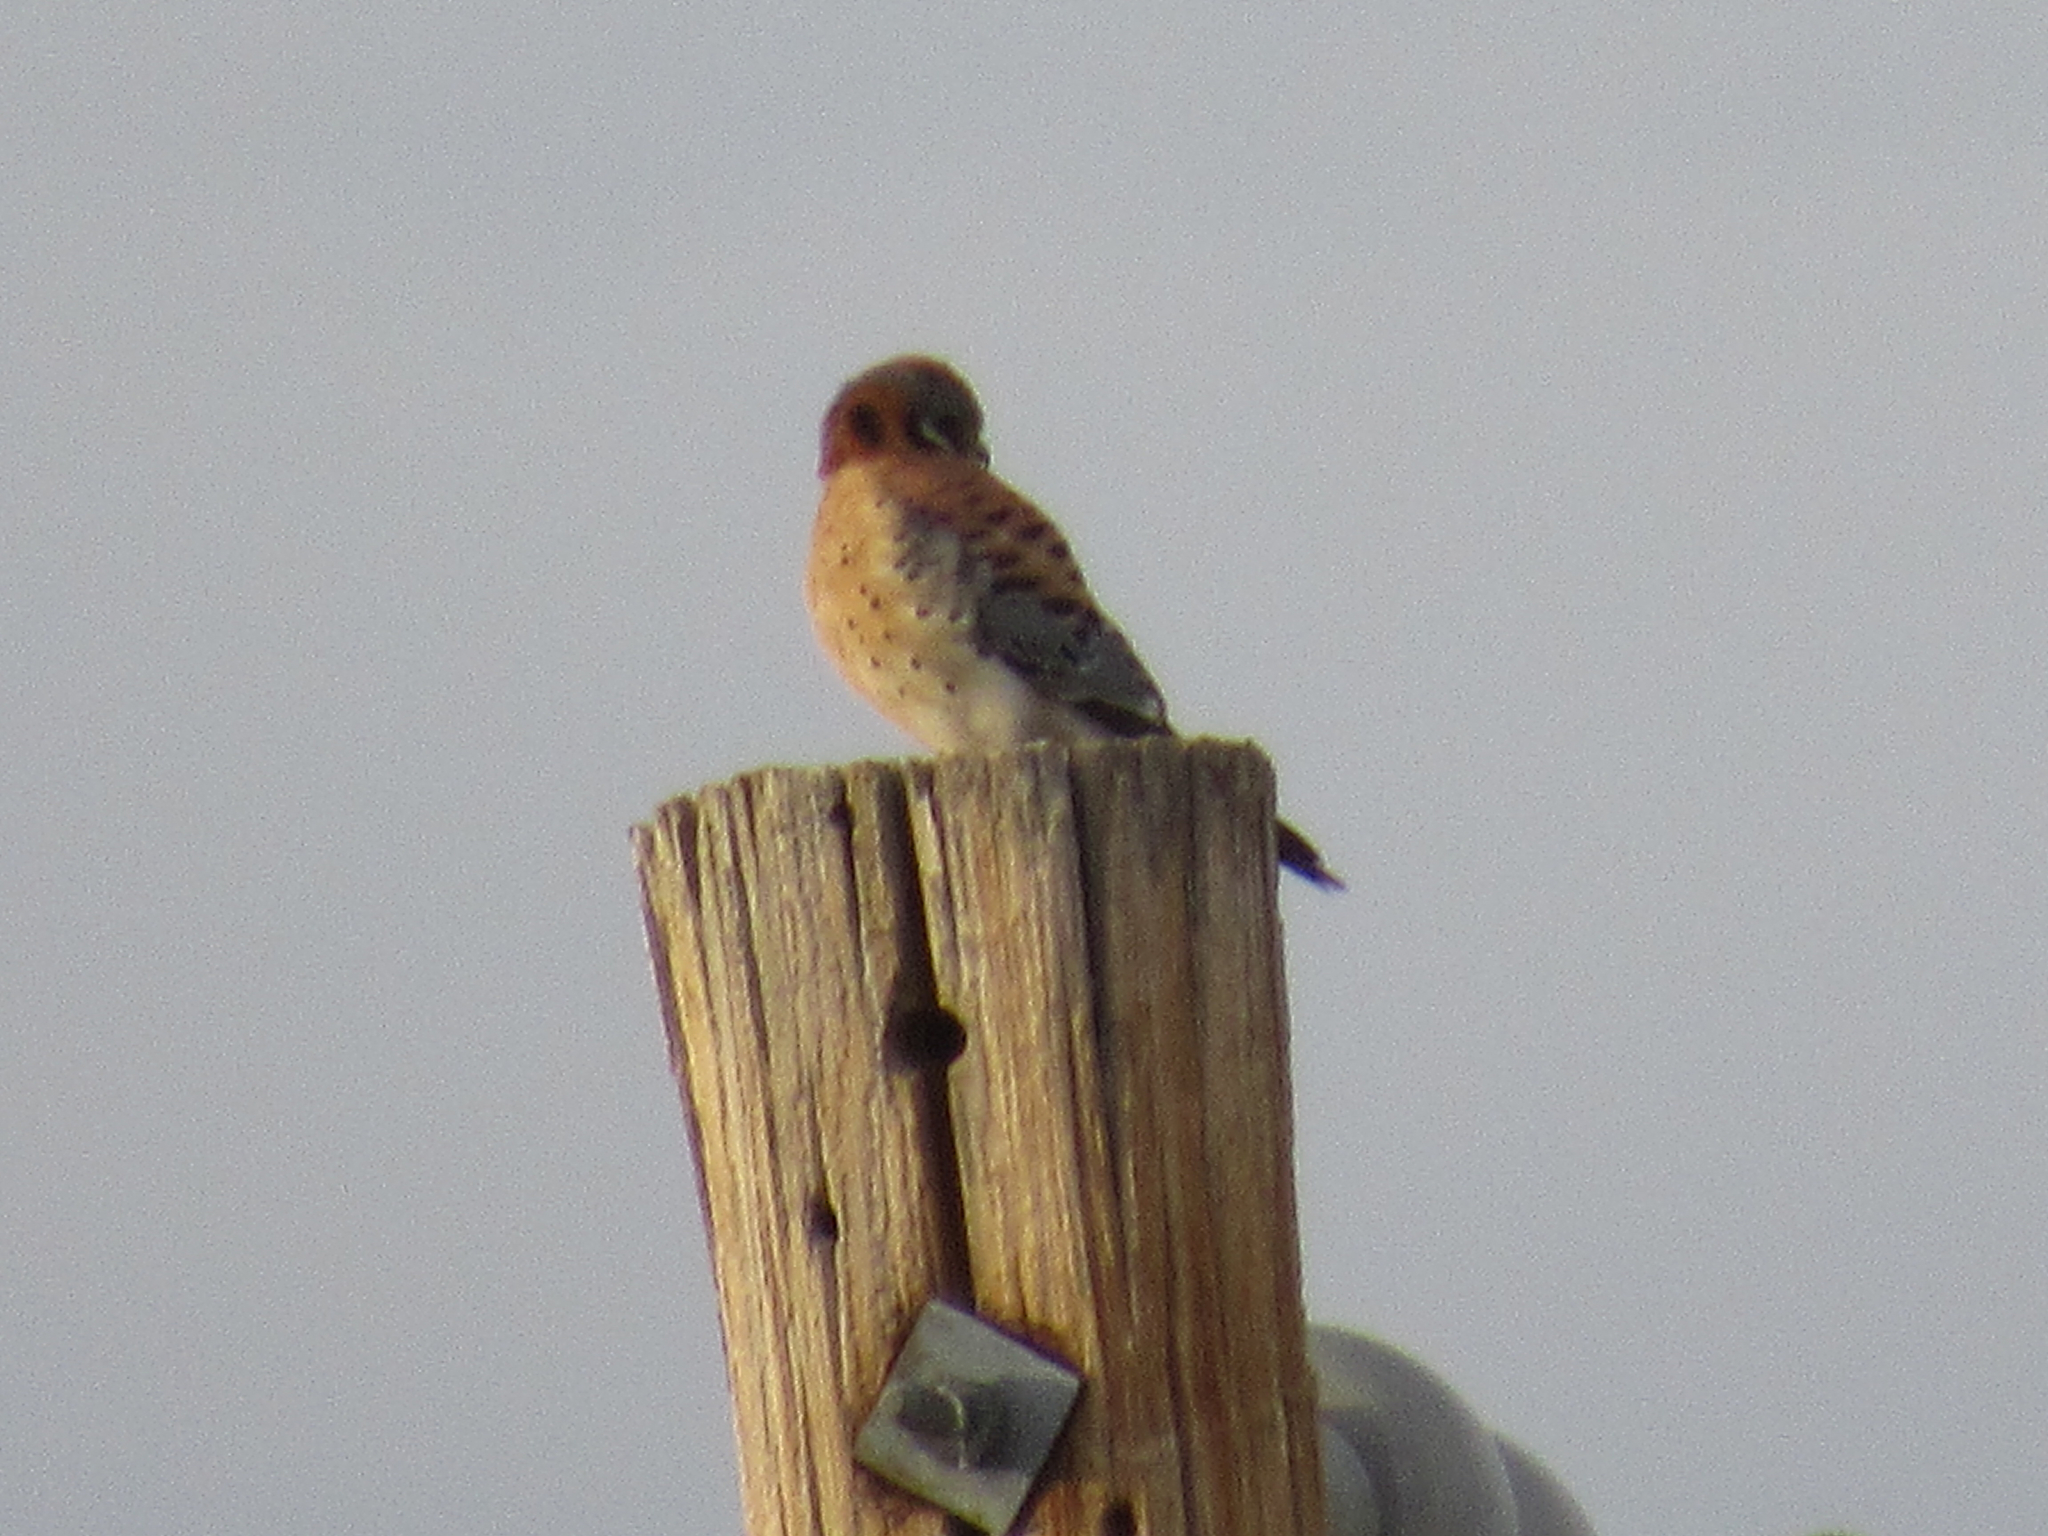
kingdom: Animalia
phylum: Chordata
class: Aves
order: Falconiformes
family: Falconidae
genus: Falco
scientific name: Falco sparverius
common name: American kestrel
